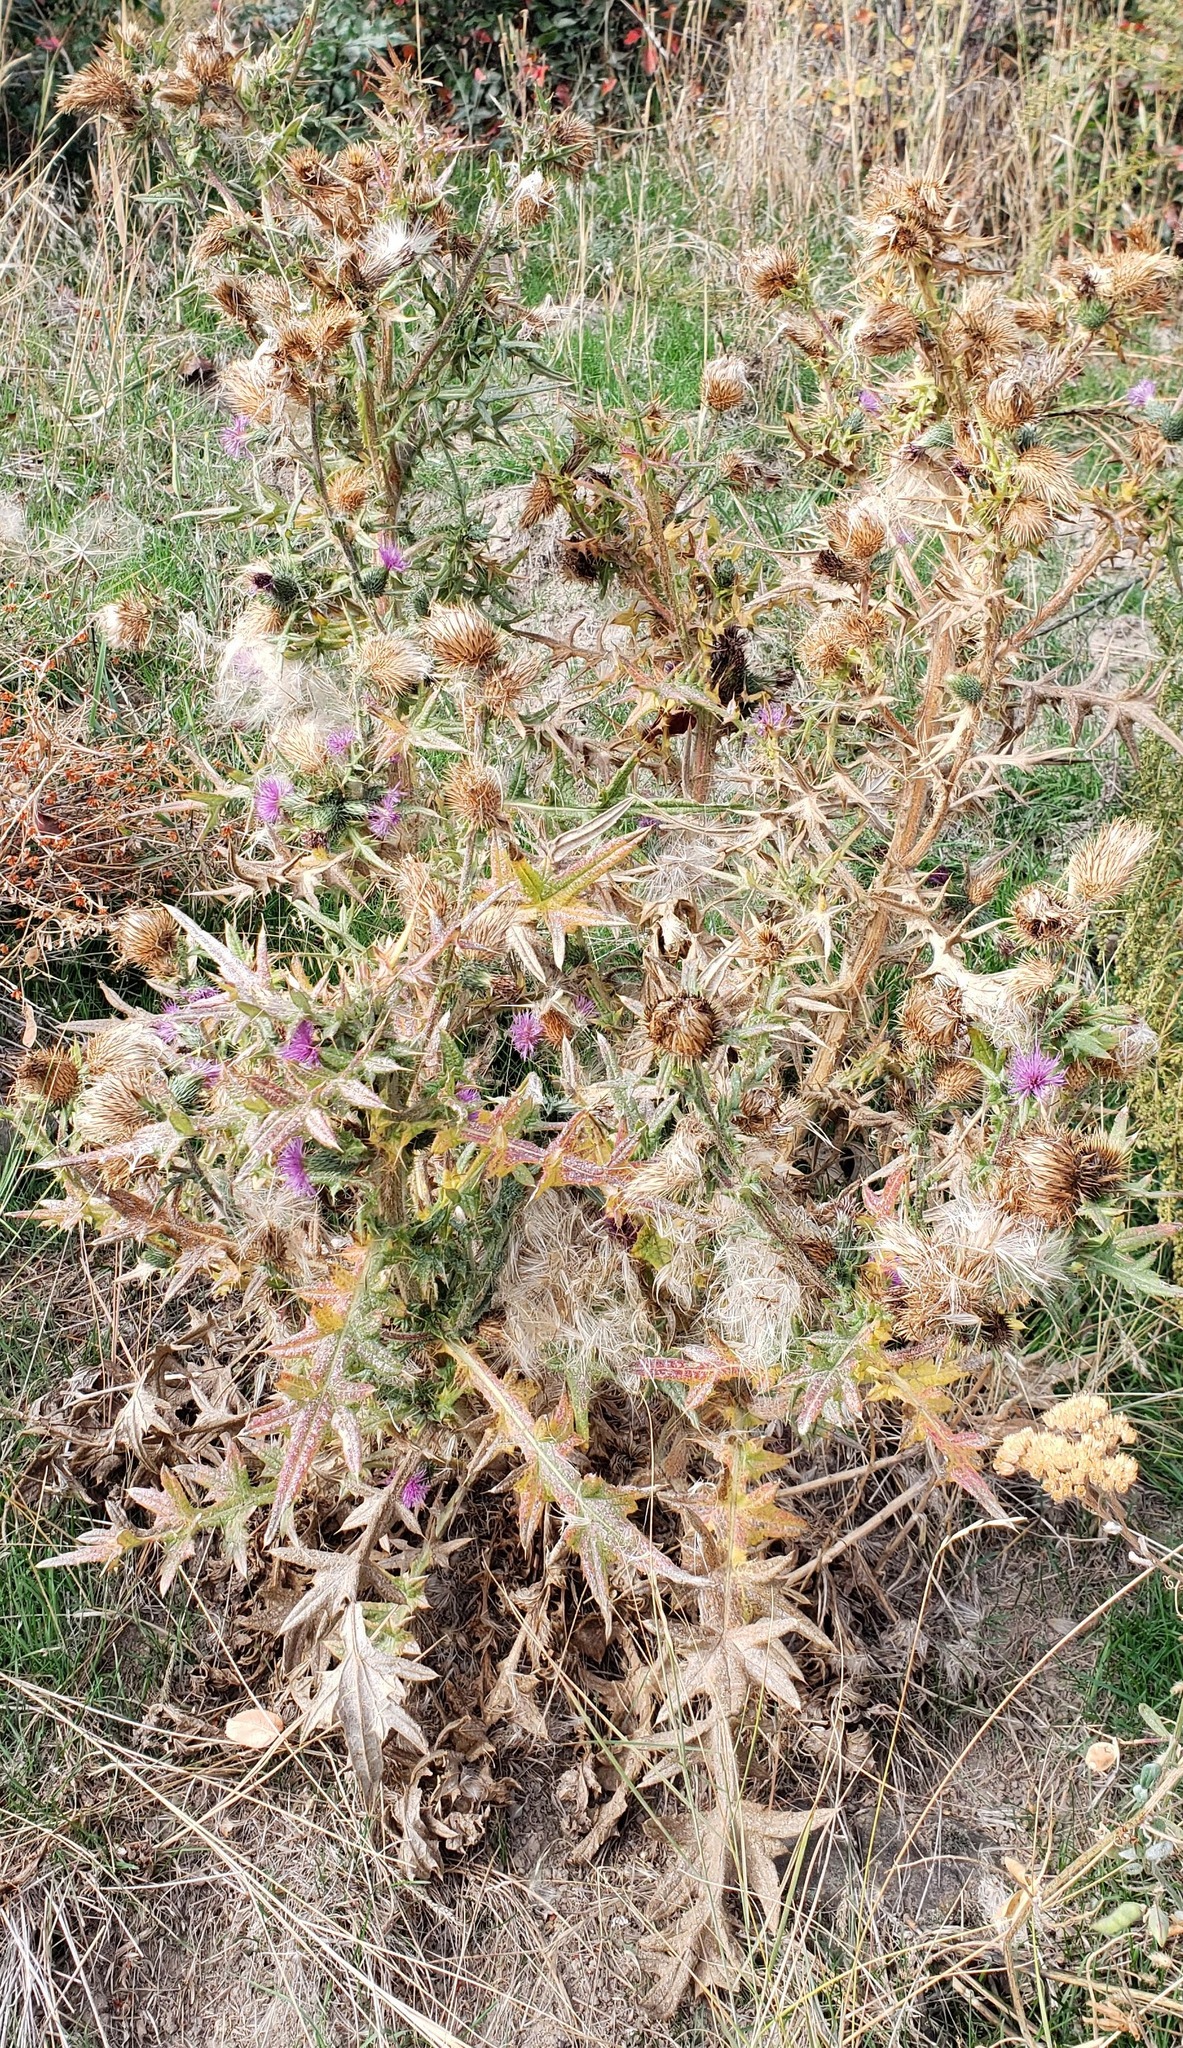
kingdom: Plantae
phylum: Tracheophyta
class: Magnoliopsida
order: Asterales
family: Asteraceae
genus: Cirsium
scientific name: Cirsium vulgare
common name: Bull thistle
